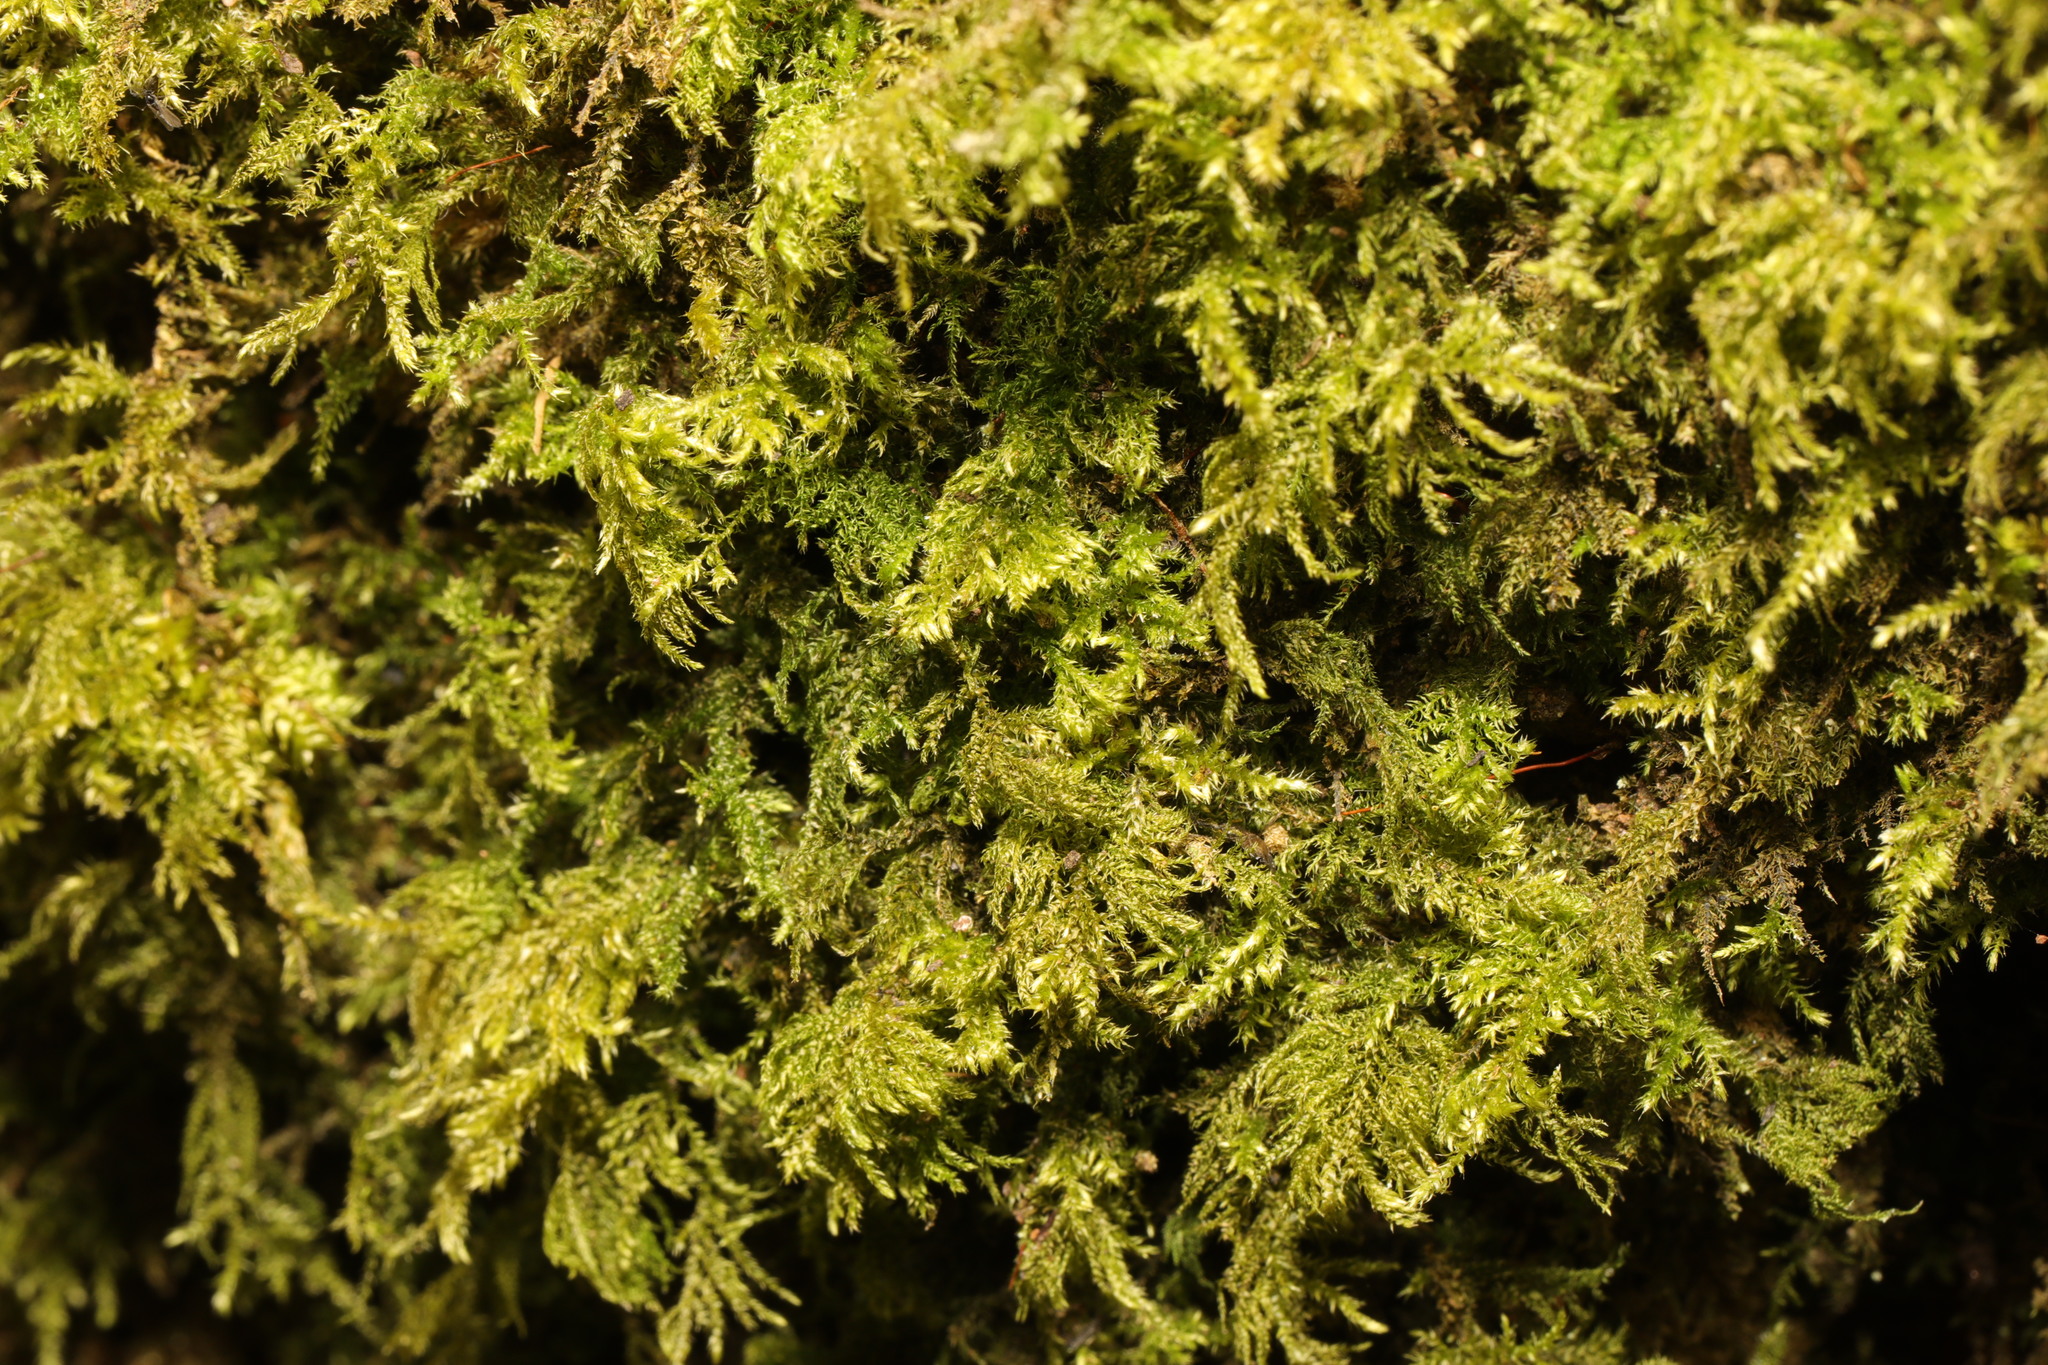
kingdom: Plantae
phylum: Bryophyta
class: Bryopsida
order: Hypnales
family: Neckeraceae
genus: Thamnobryum
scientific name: Thamnobryum alopecurum
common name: Fox-tail feather-moss
